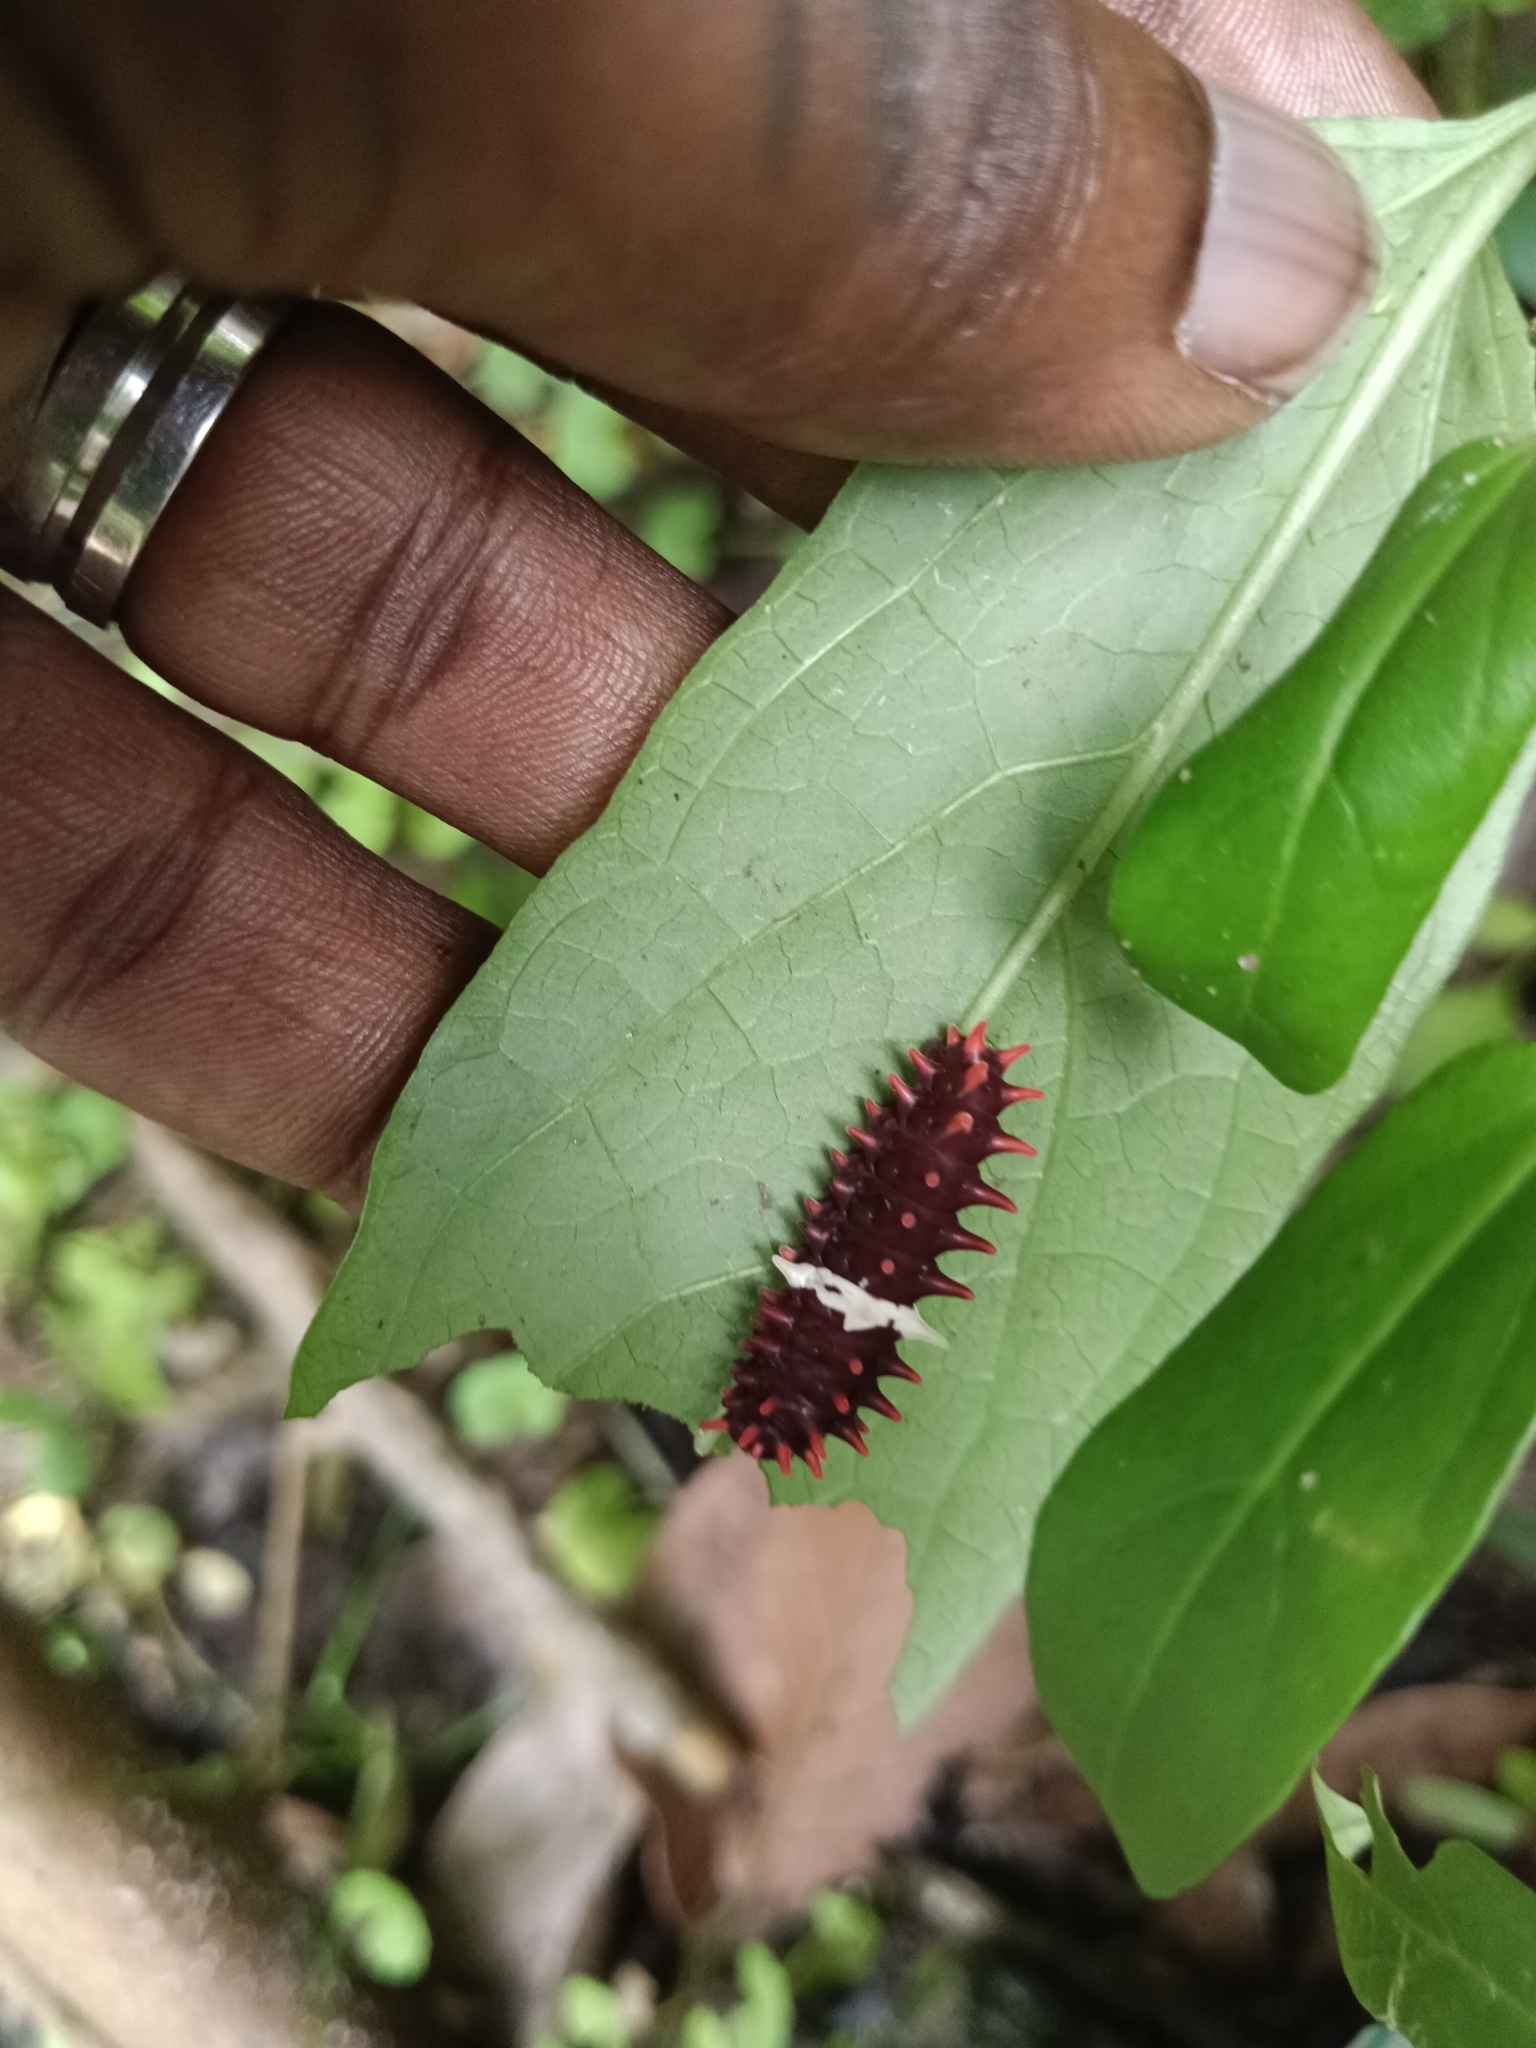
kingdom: Animalia
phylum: Arthropoda
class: Insecta
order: Lepidoptera
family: Papilionidae
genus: Pachliopta
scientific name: Pachliopta aristolochiae
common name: Common rose
